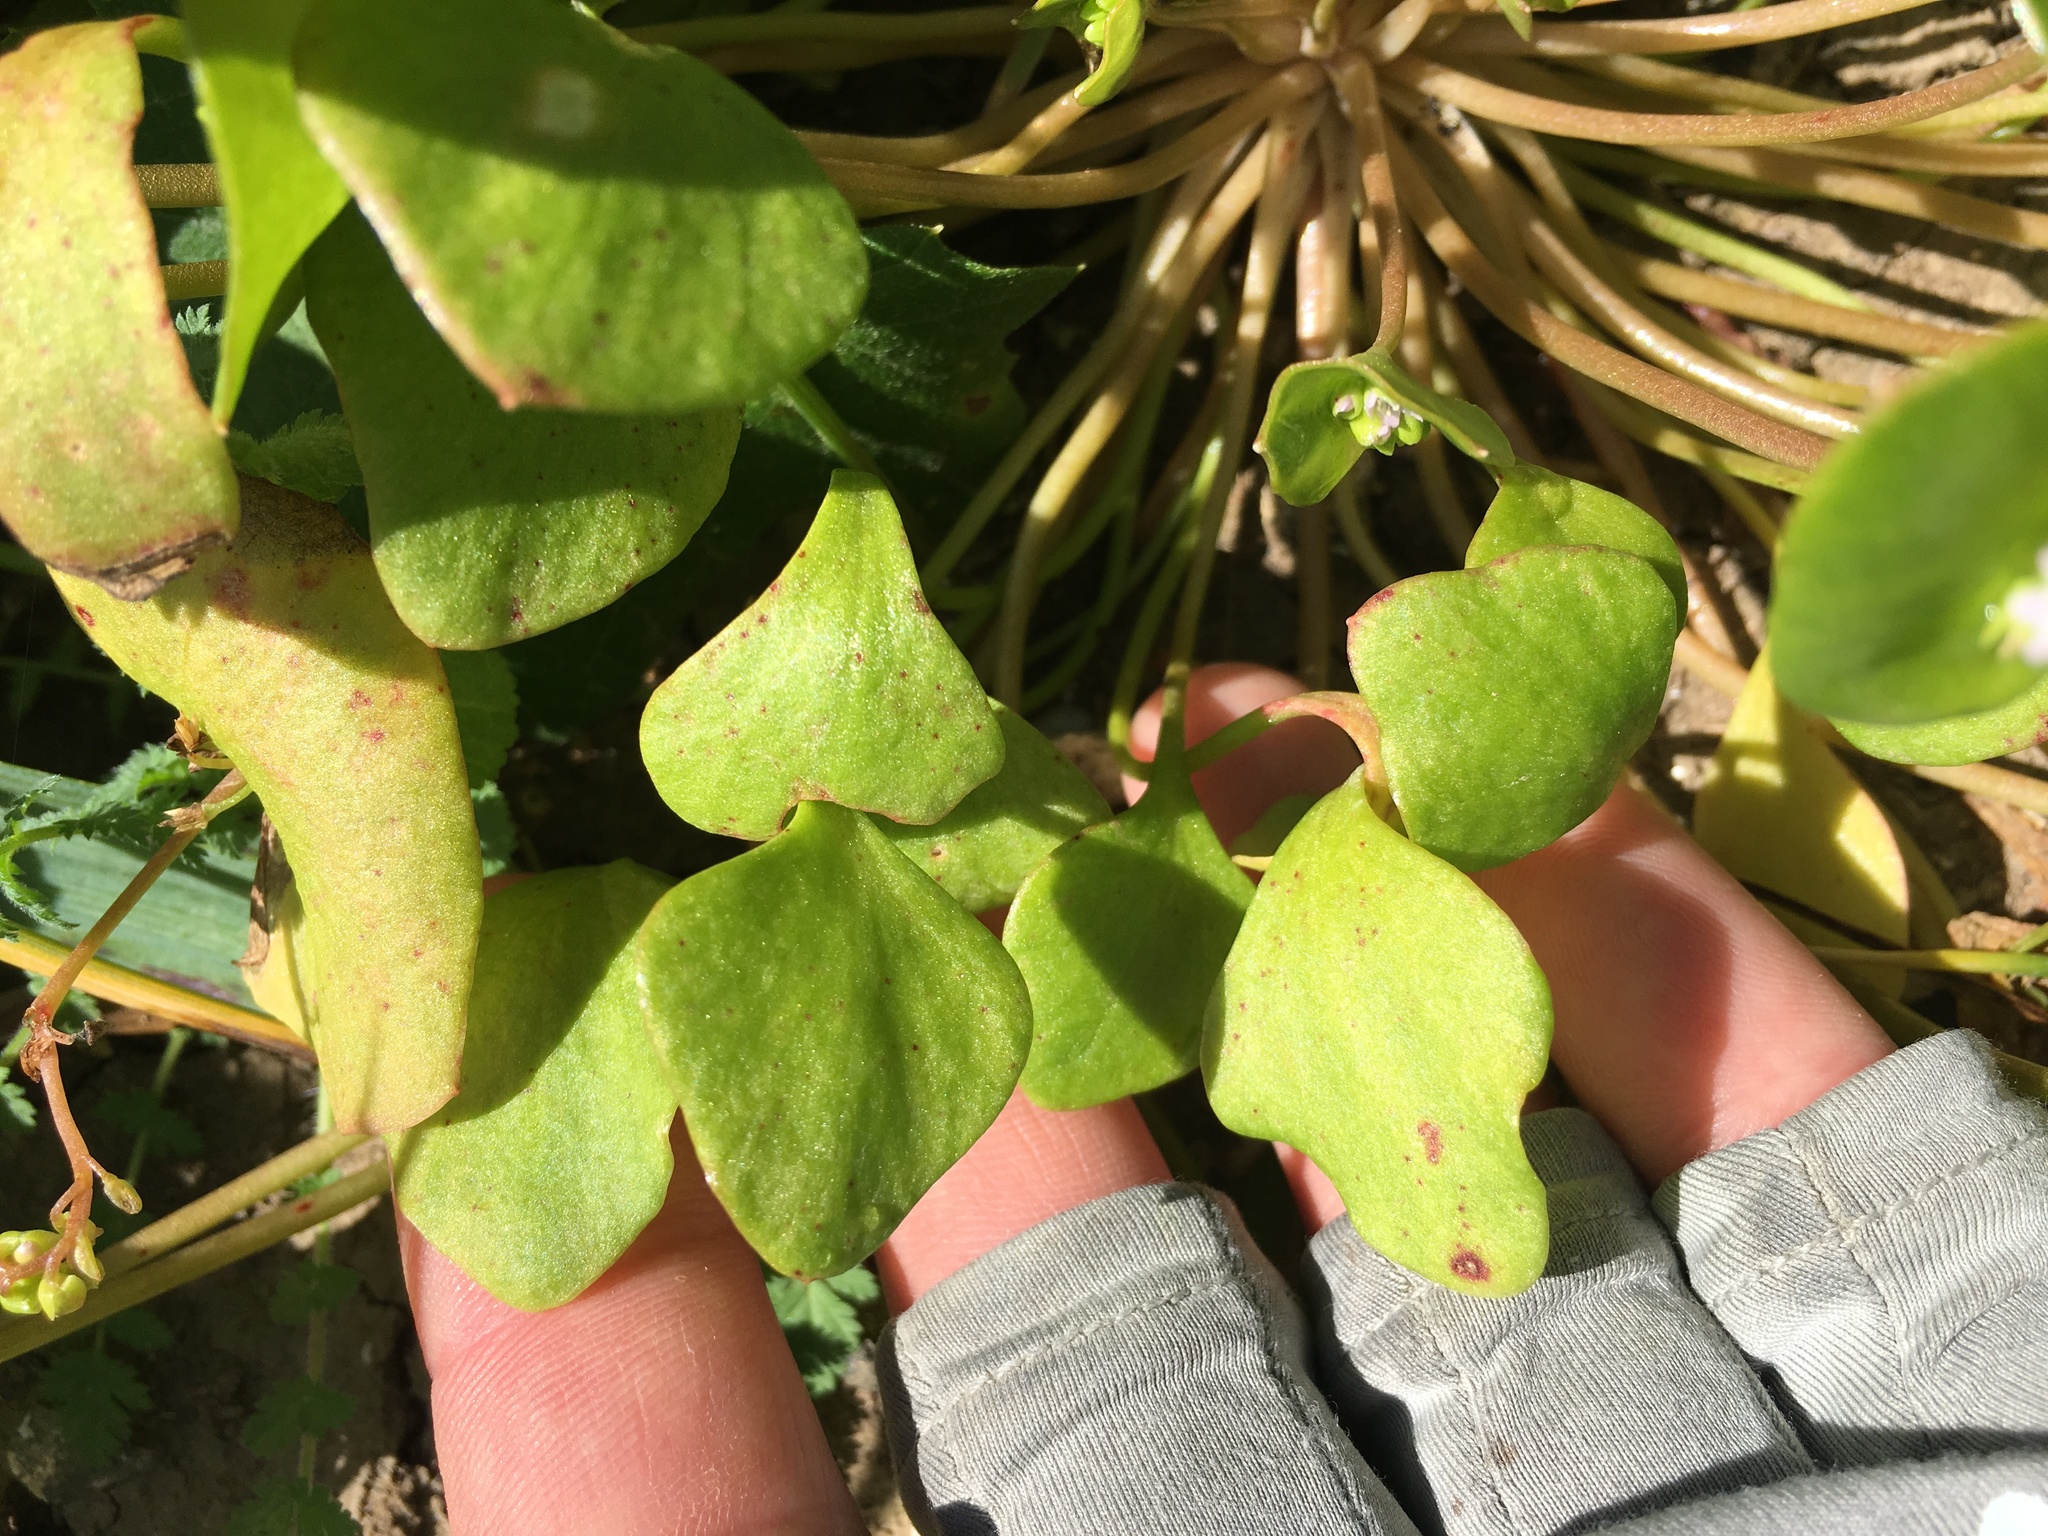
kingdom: Plantae
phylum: Tracheophyta
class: Magnoliopsida
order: Caryophyllales
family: Montiaceae
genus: Claytonia
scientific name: Claytonia perfoliata
